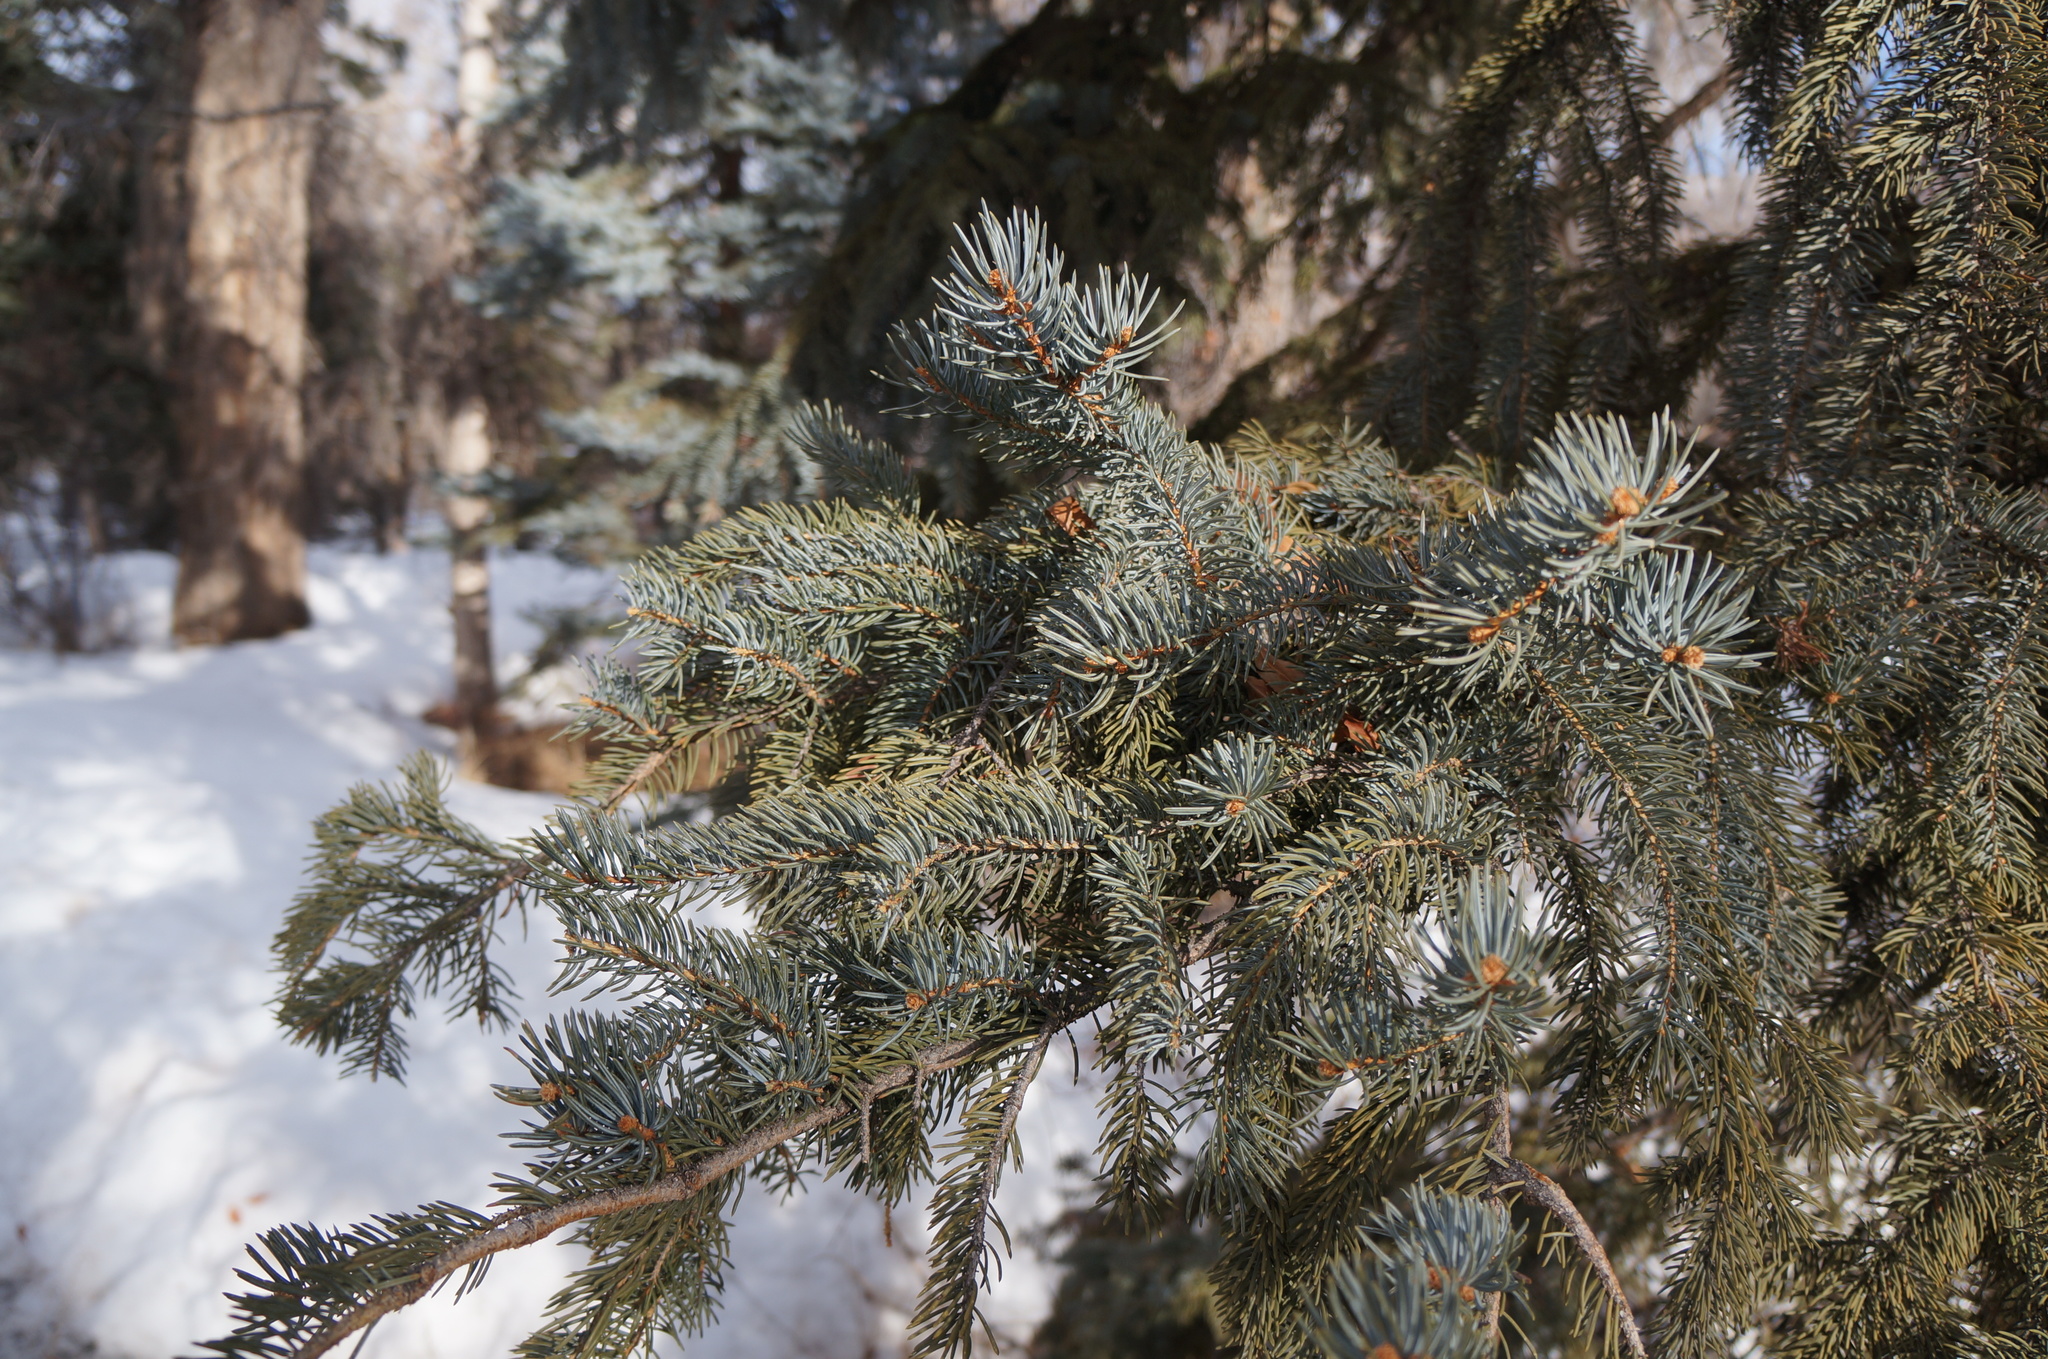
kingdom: Plantae
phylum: Tracheophyta
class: Pinopsida
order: Pinales
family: Pinaceae
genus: Picea
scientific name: Picea pungens
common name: Colorado spruce
